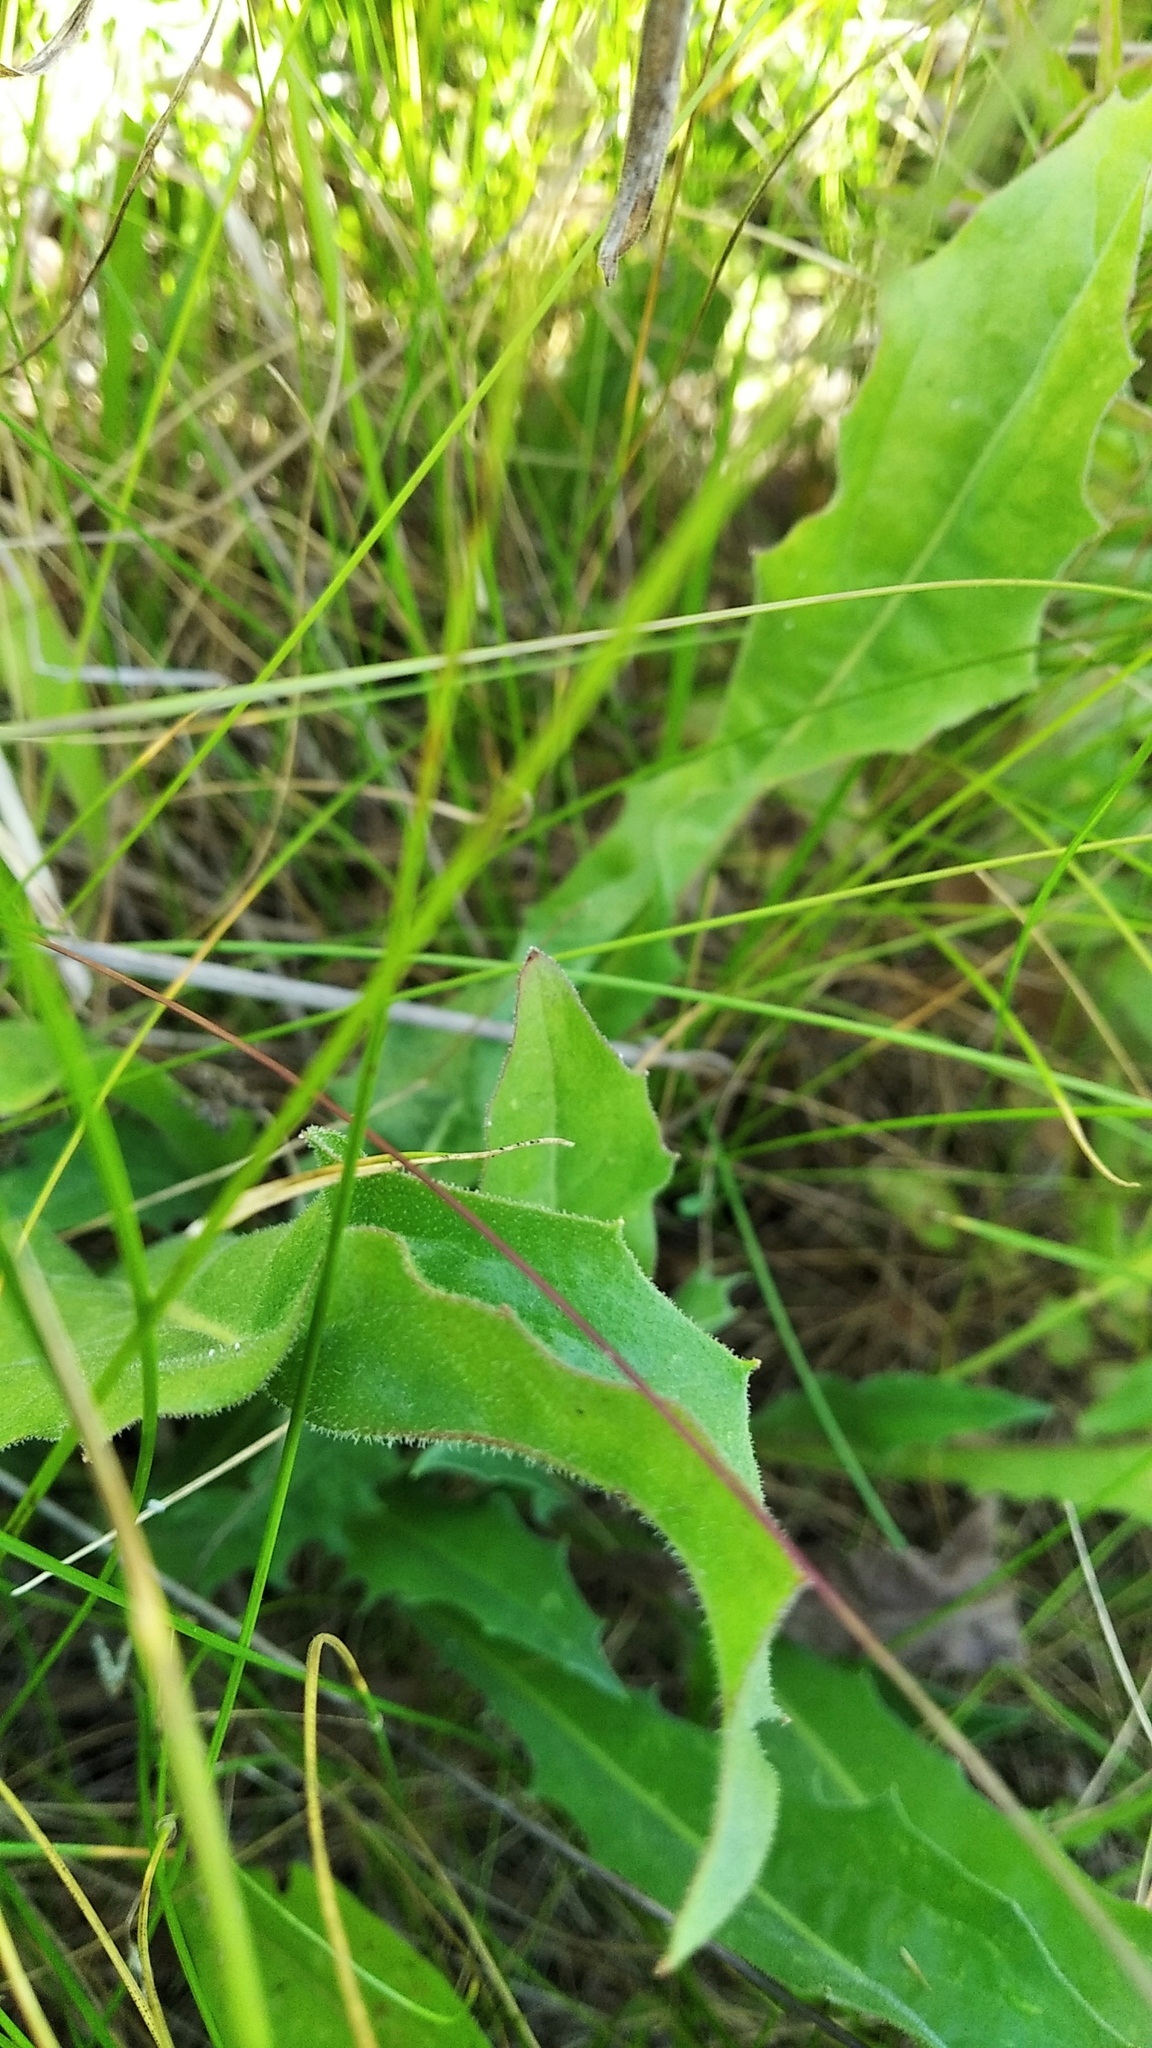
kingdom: Plantae
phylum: Tracheophyta
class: Magnoliopsida
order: Asterales
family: Asteraceae
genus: Leontodon
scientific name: Leontodon hispidus
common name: Rough hawkbit
